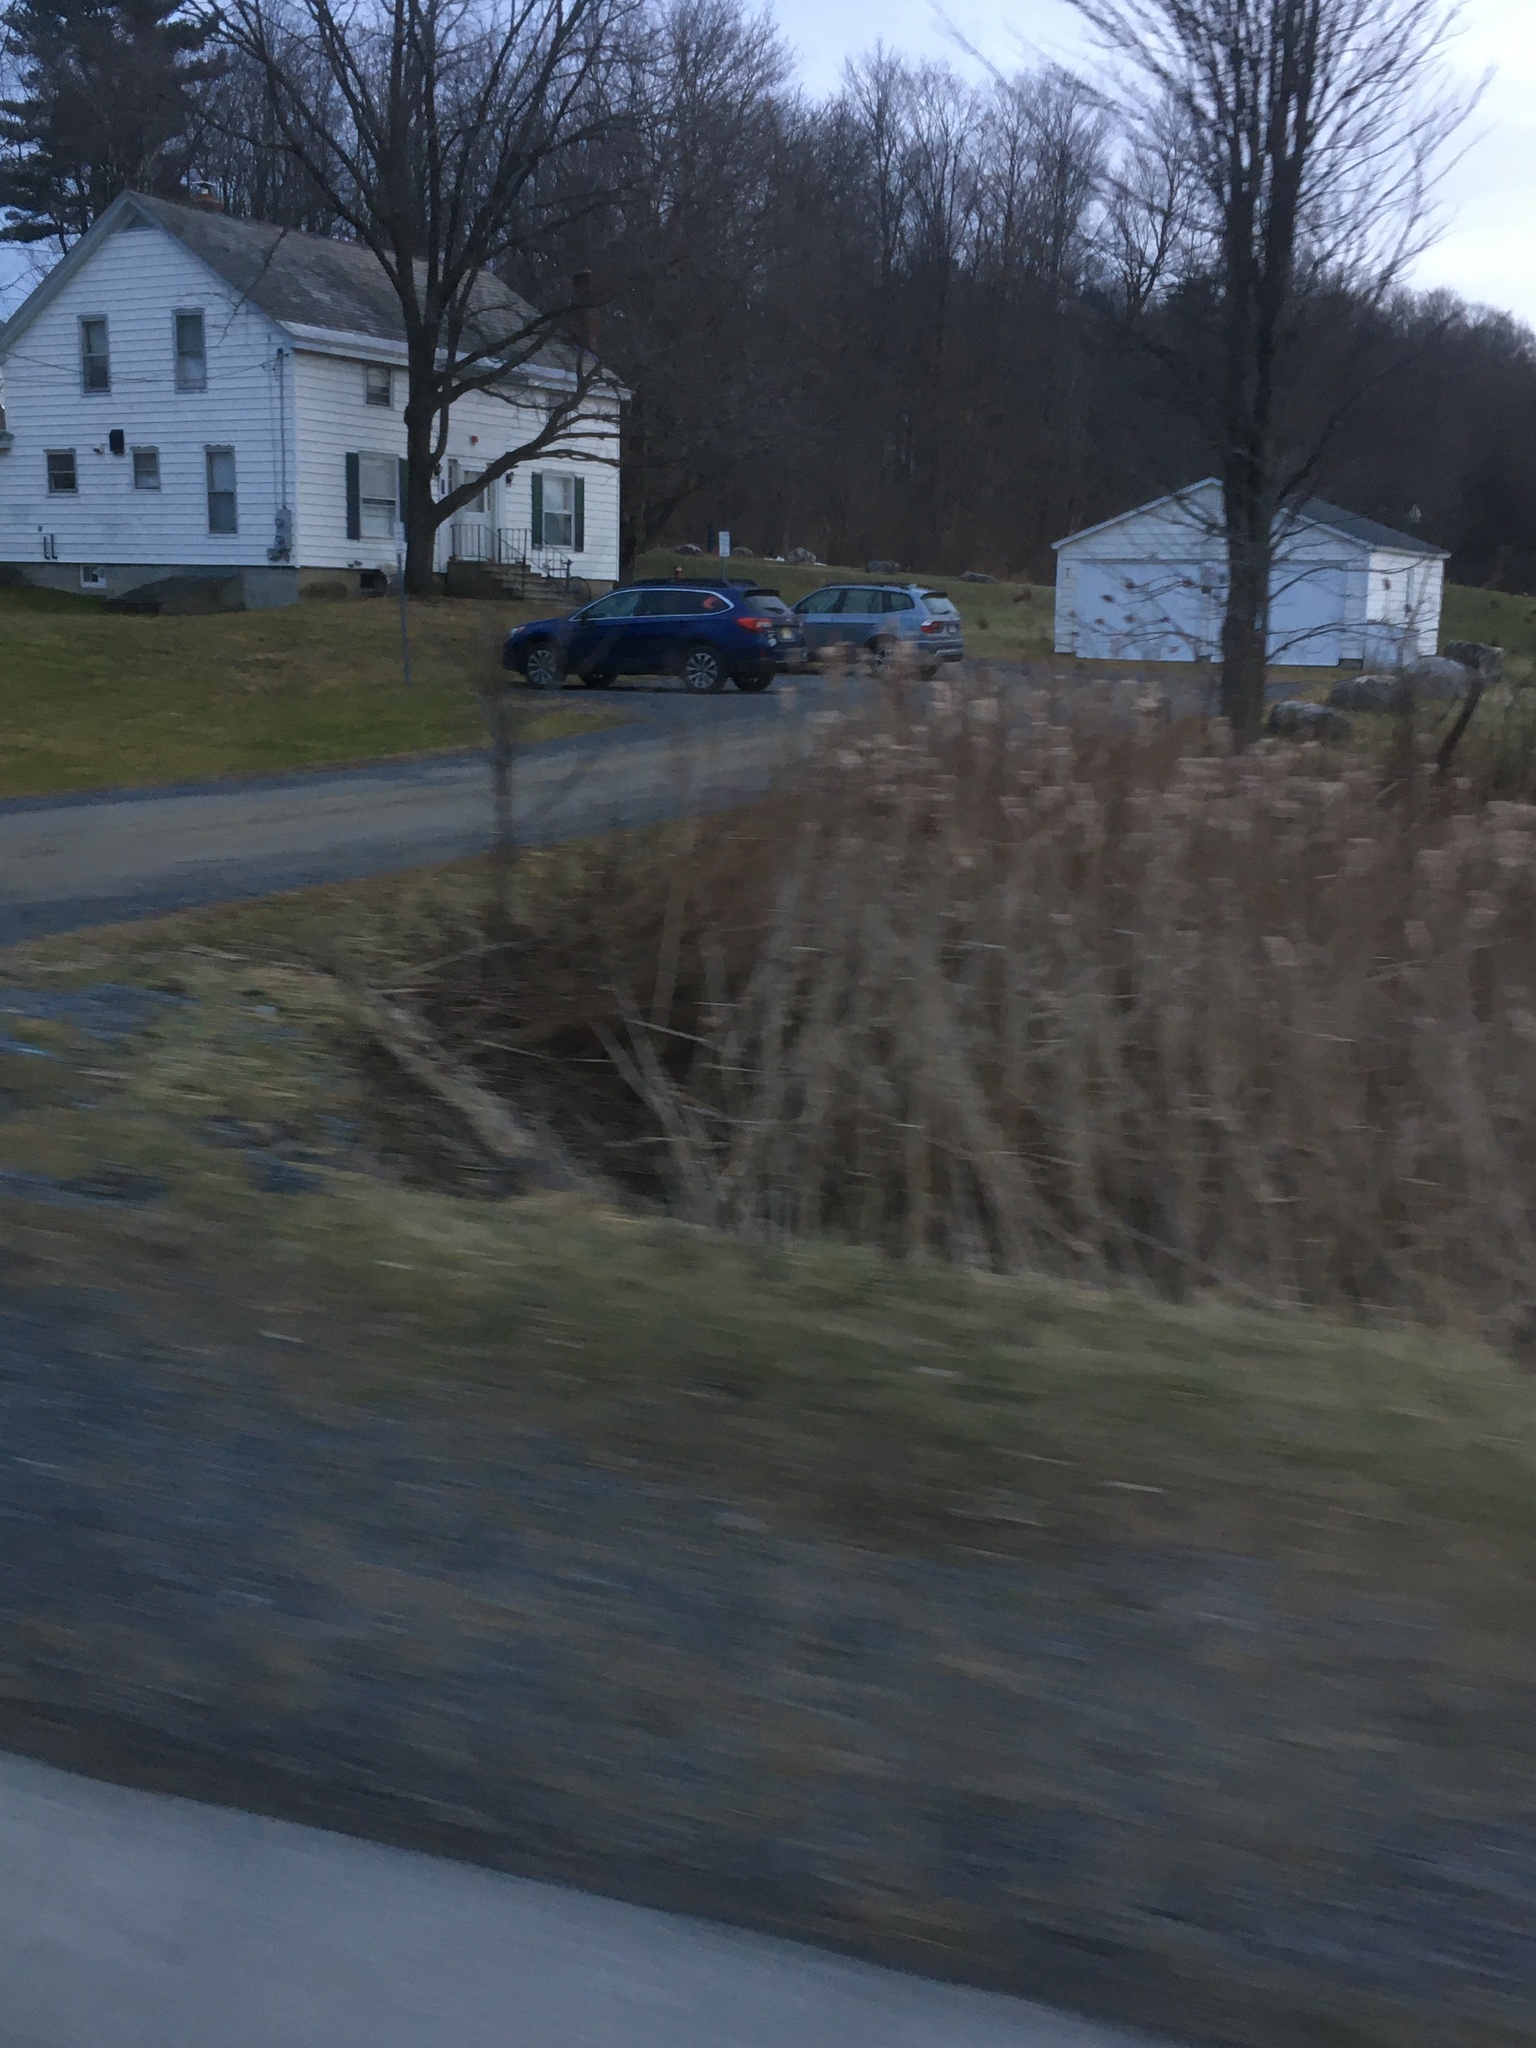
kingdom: Plantae
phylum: Tracheophyta
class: Liliopsida
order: Poales
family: Typhaceae
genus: Typha
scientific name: Typha
